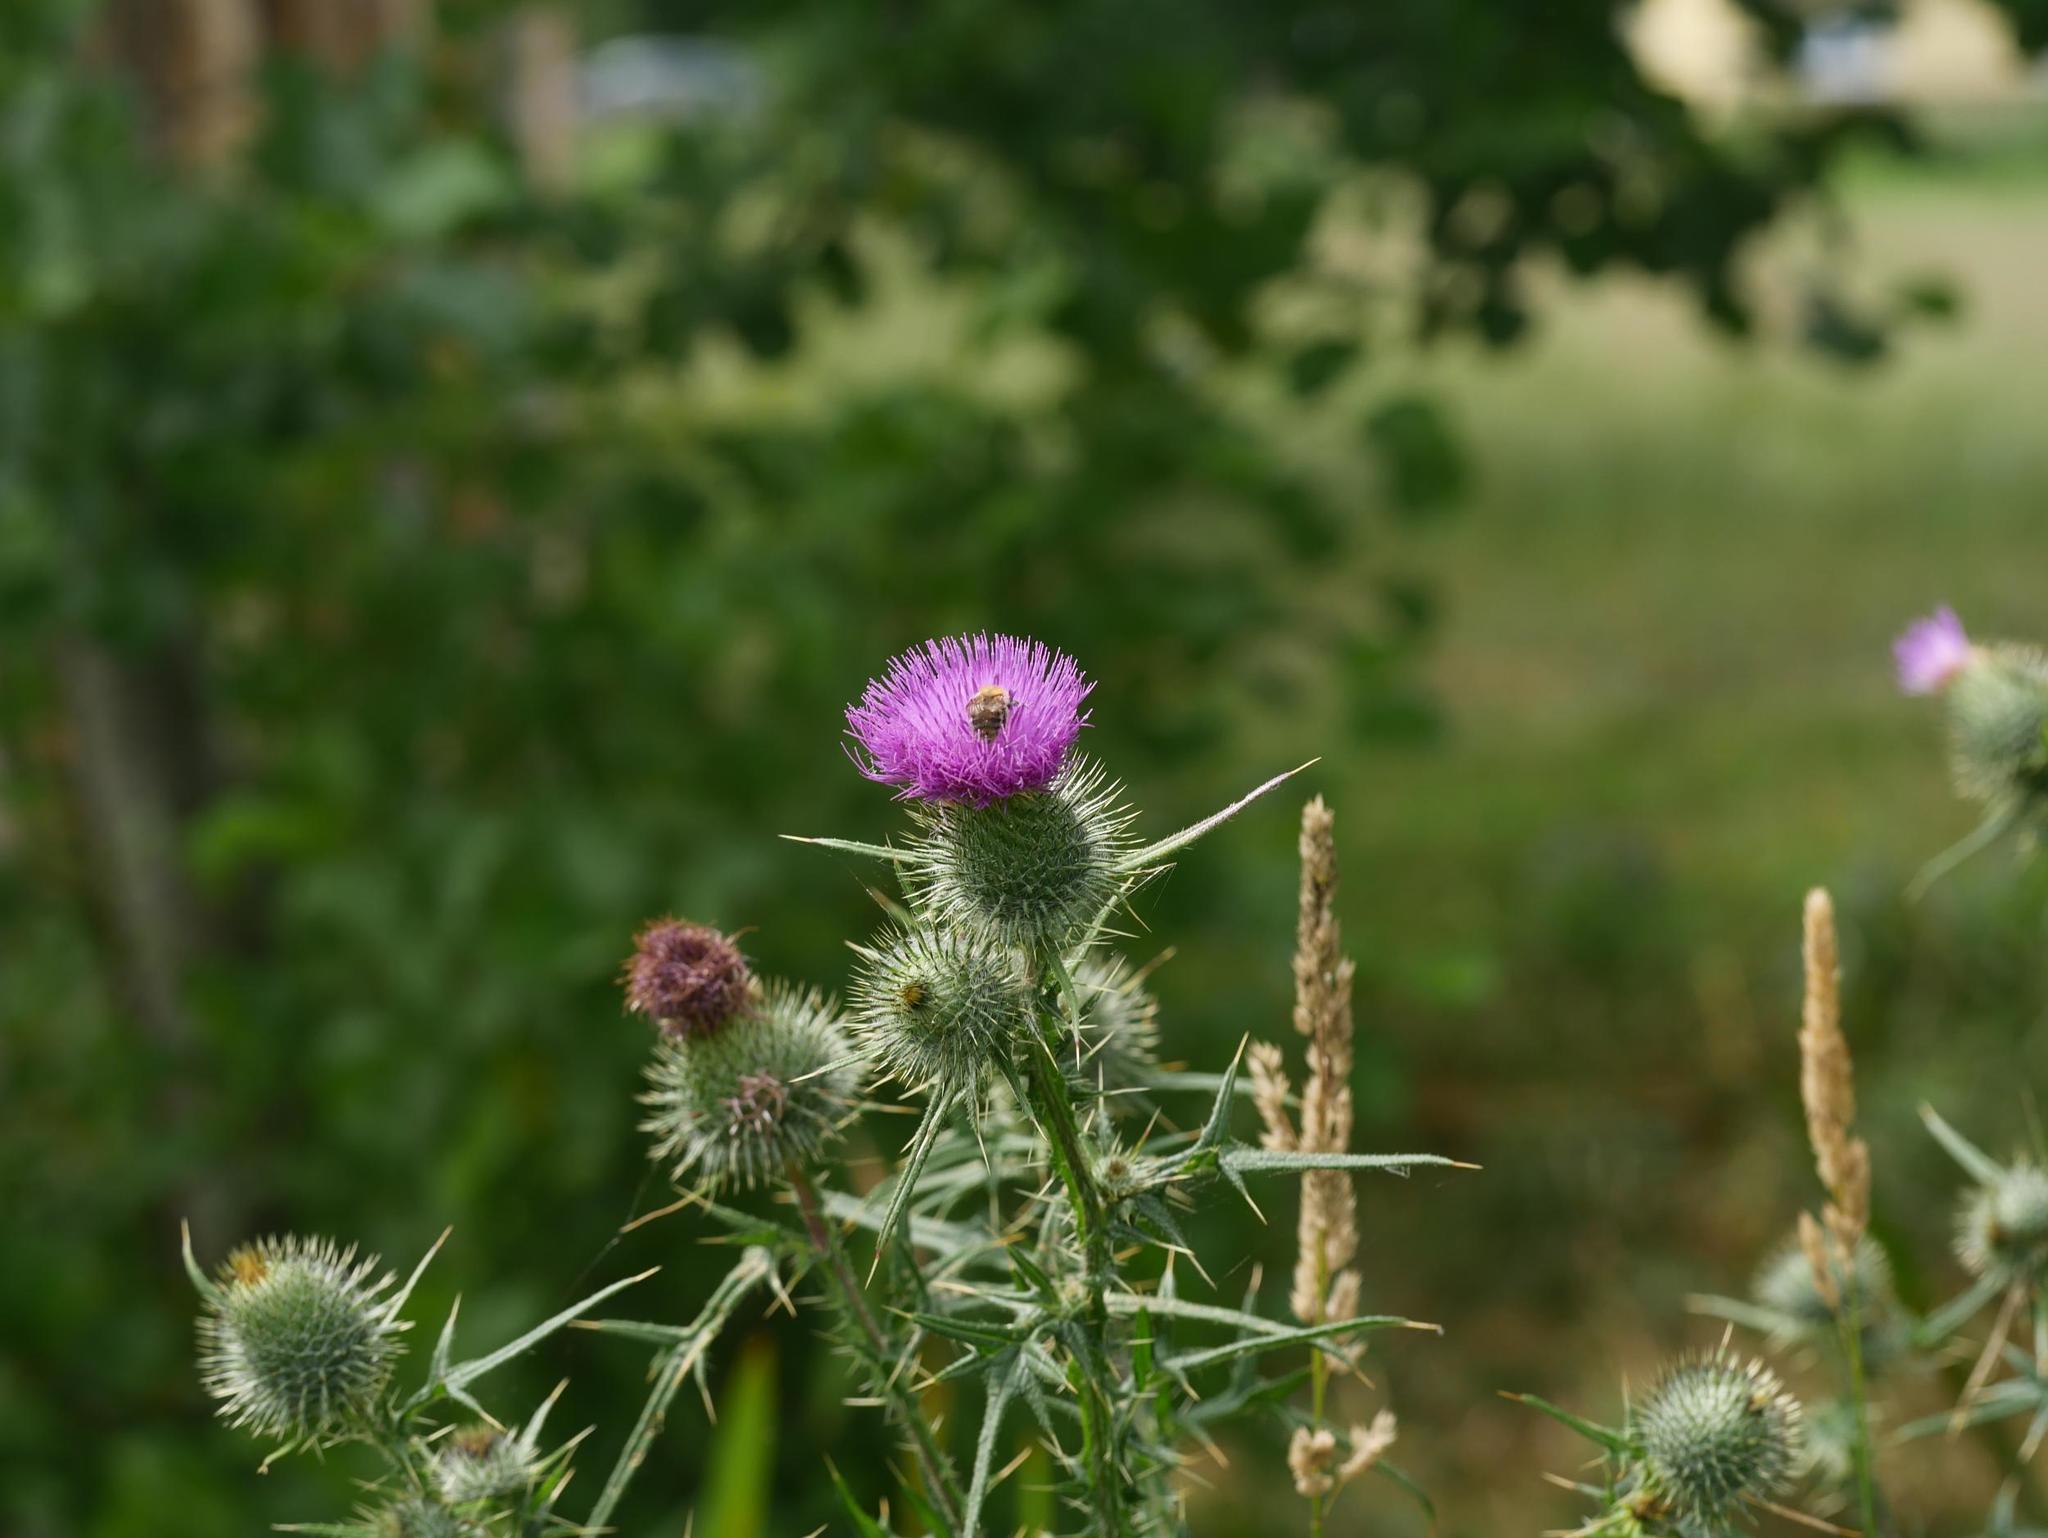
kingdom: Plantae
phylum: Tracheophyta
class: Magnoliopsida
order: Asterales
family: Asteraceae
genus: Cirsium
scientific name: Cirsium vulgare
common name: Bull thistle
